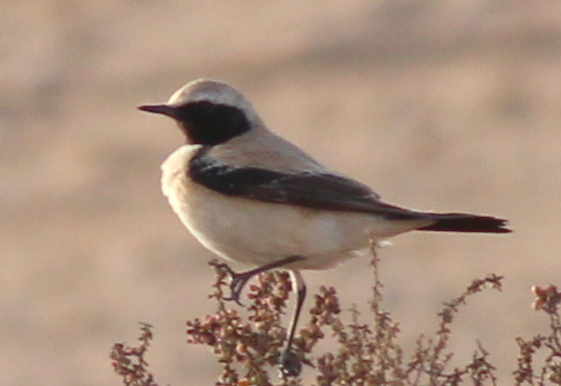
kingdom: Animalia
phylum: Chordata
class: Aves
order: Passeriformes
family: Muscicapidae
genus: Oenanthe
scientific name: Oenanthe deserti
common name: Desert wheatear
